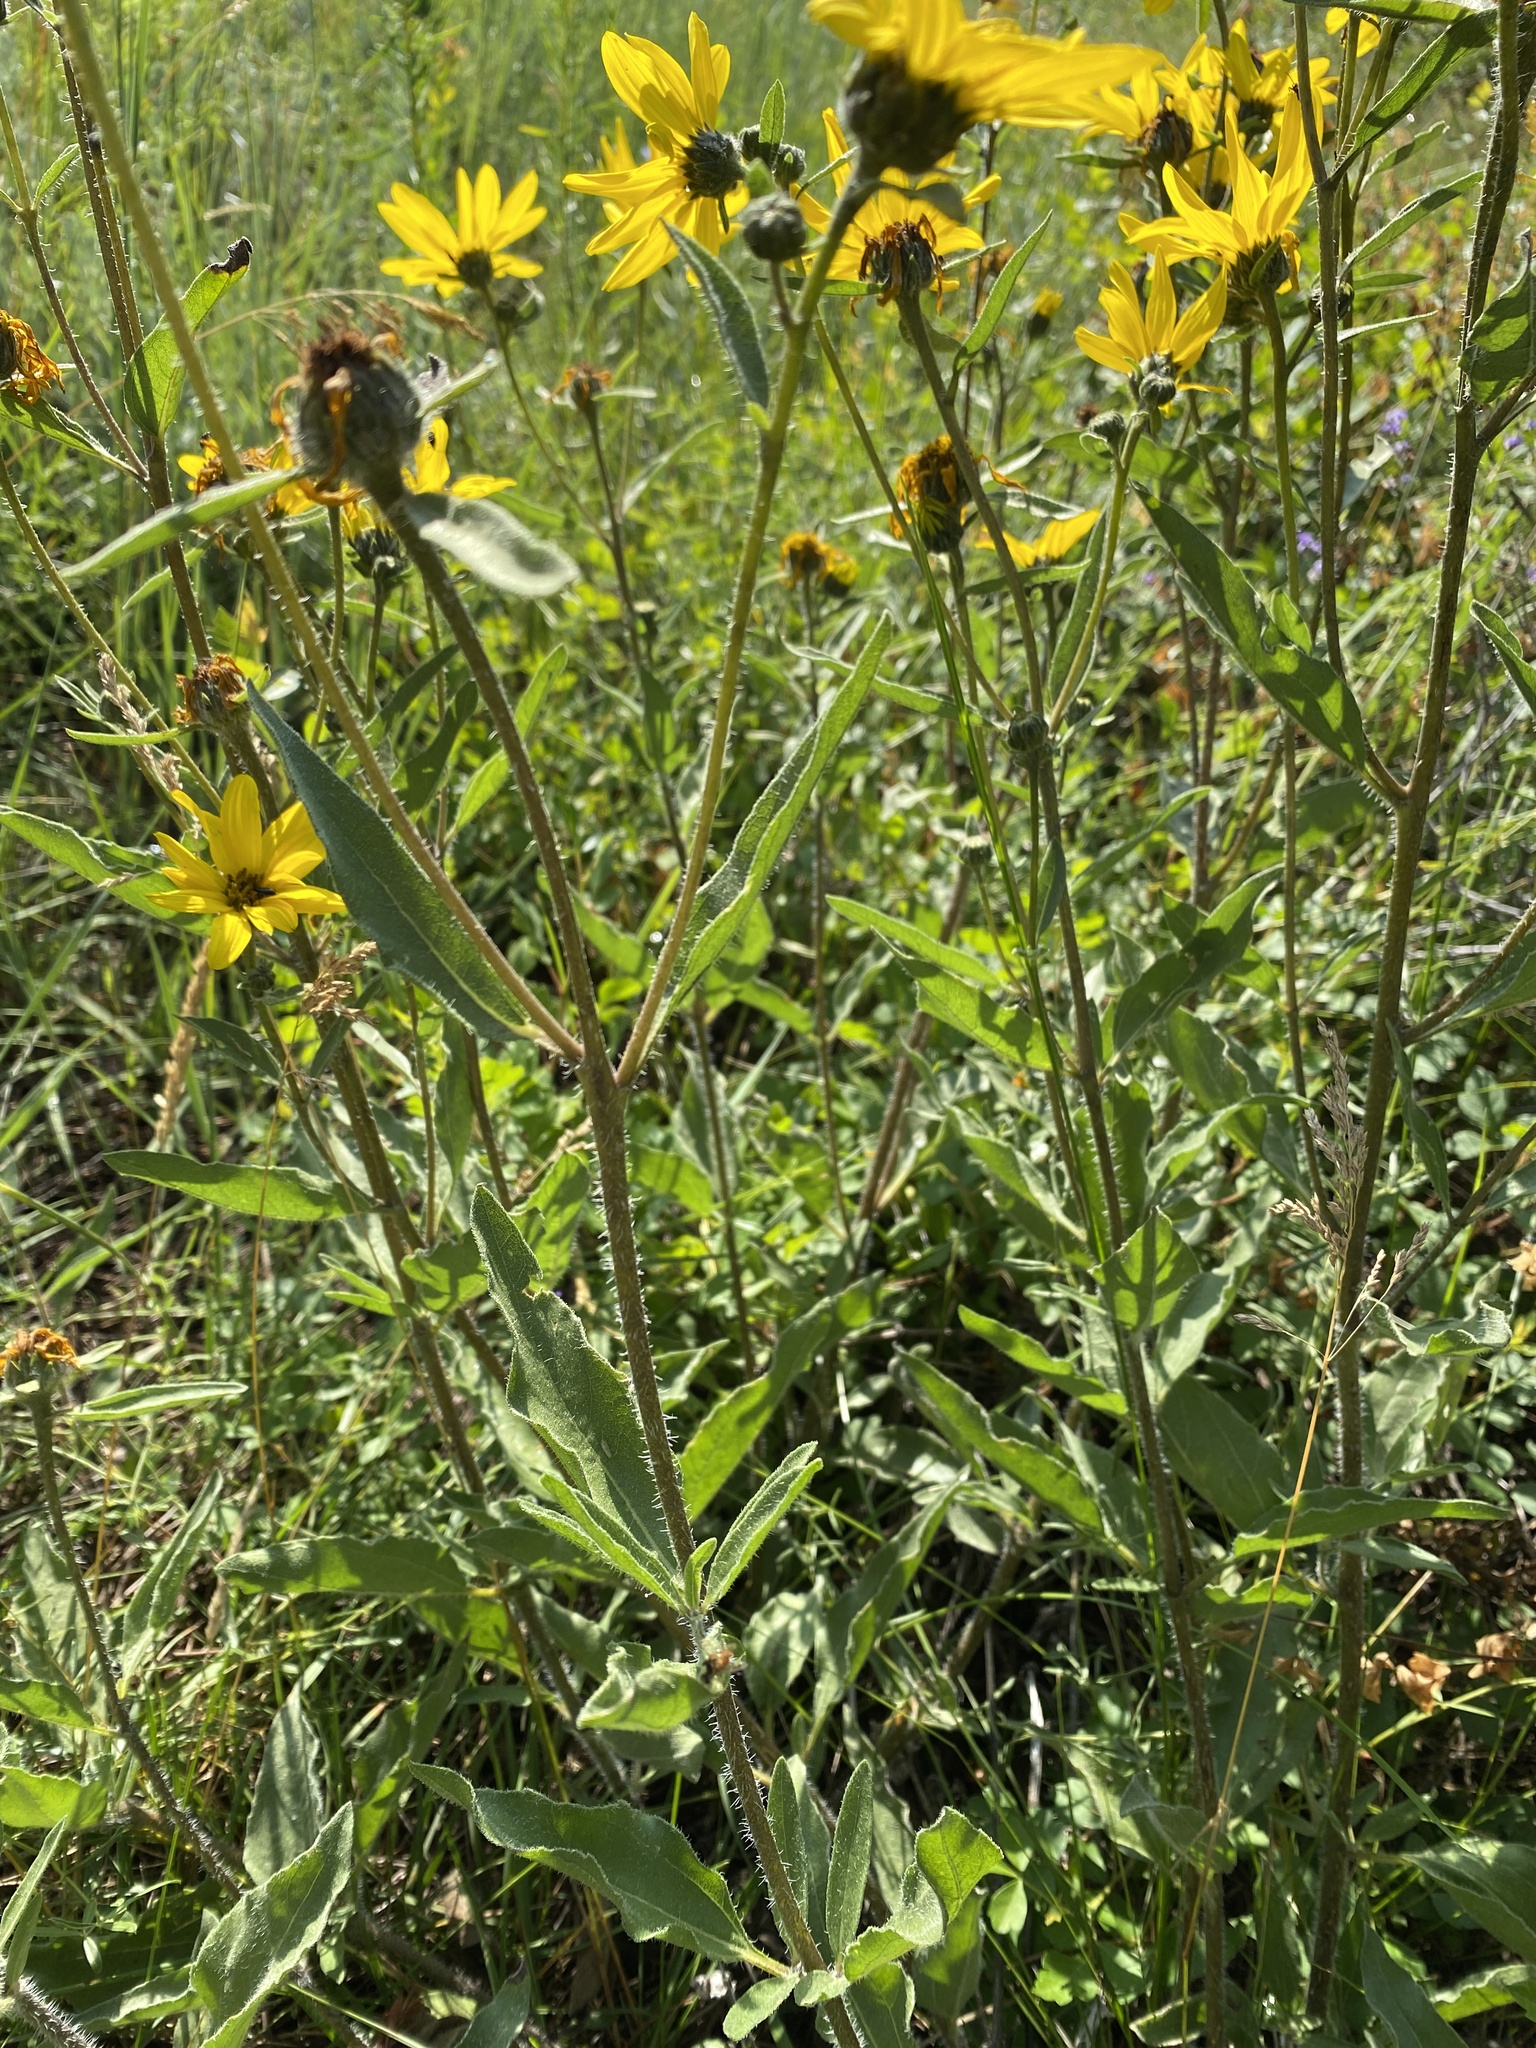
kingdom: Plantae
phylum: Tracheophyta
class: Magnoliopsida
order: Asterales
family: Asteraceae
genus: Helianthus
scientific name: Helianthus pumilus
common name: Dwarf sunflower
